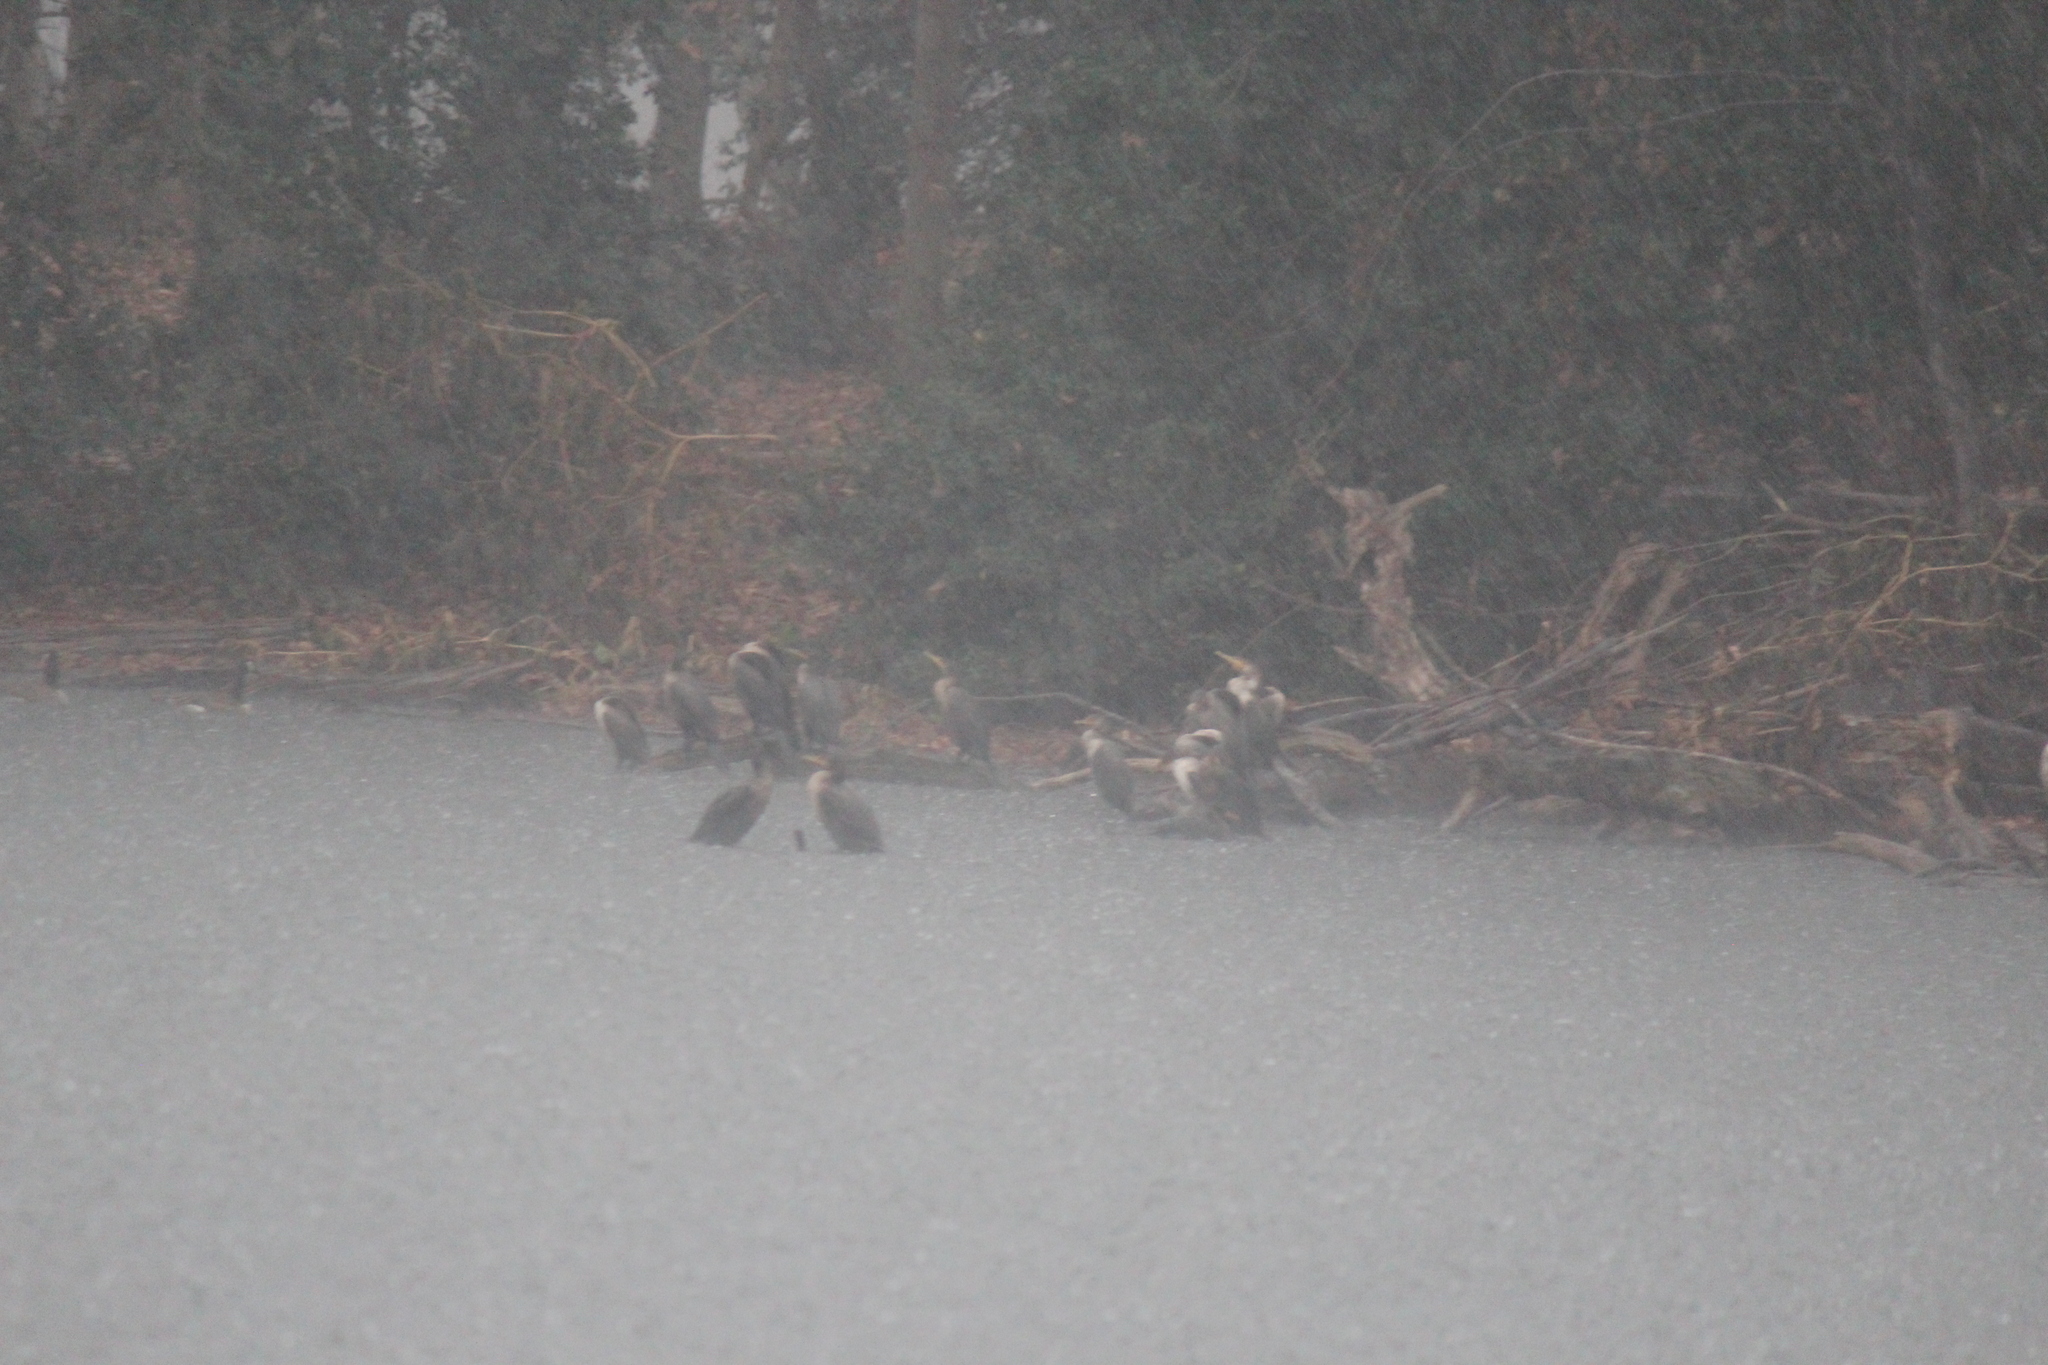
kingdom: Animalia
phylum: Chordata
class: Aves
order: Suliformes
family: Phalacrocoracidae
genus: Phalacrocorax
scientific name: Phalacrocorax auritus
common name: Double-crested cormorant
